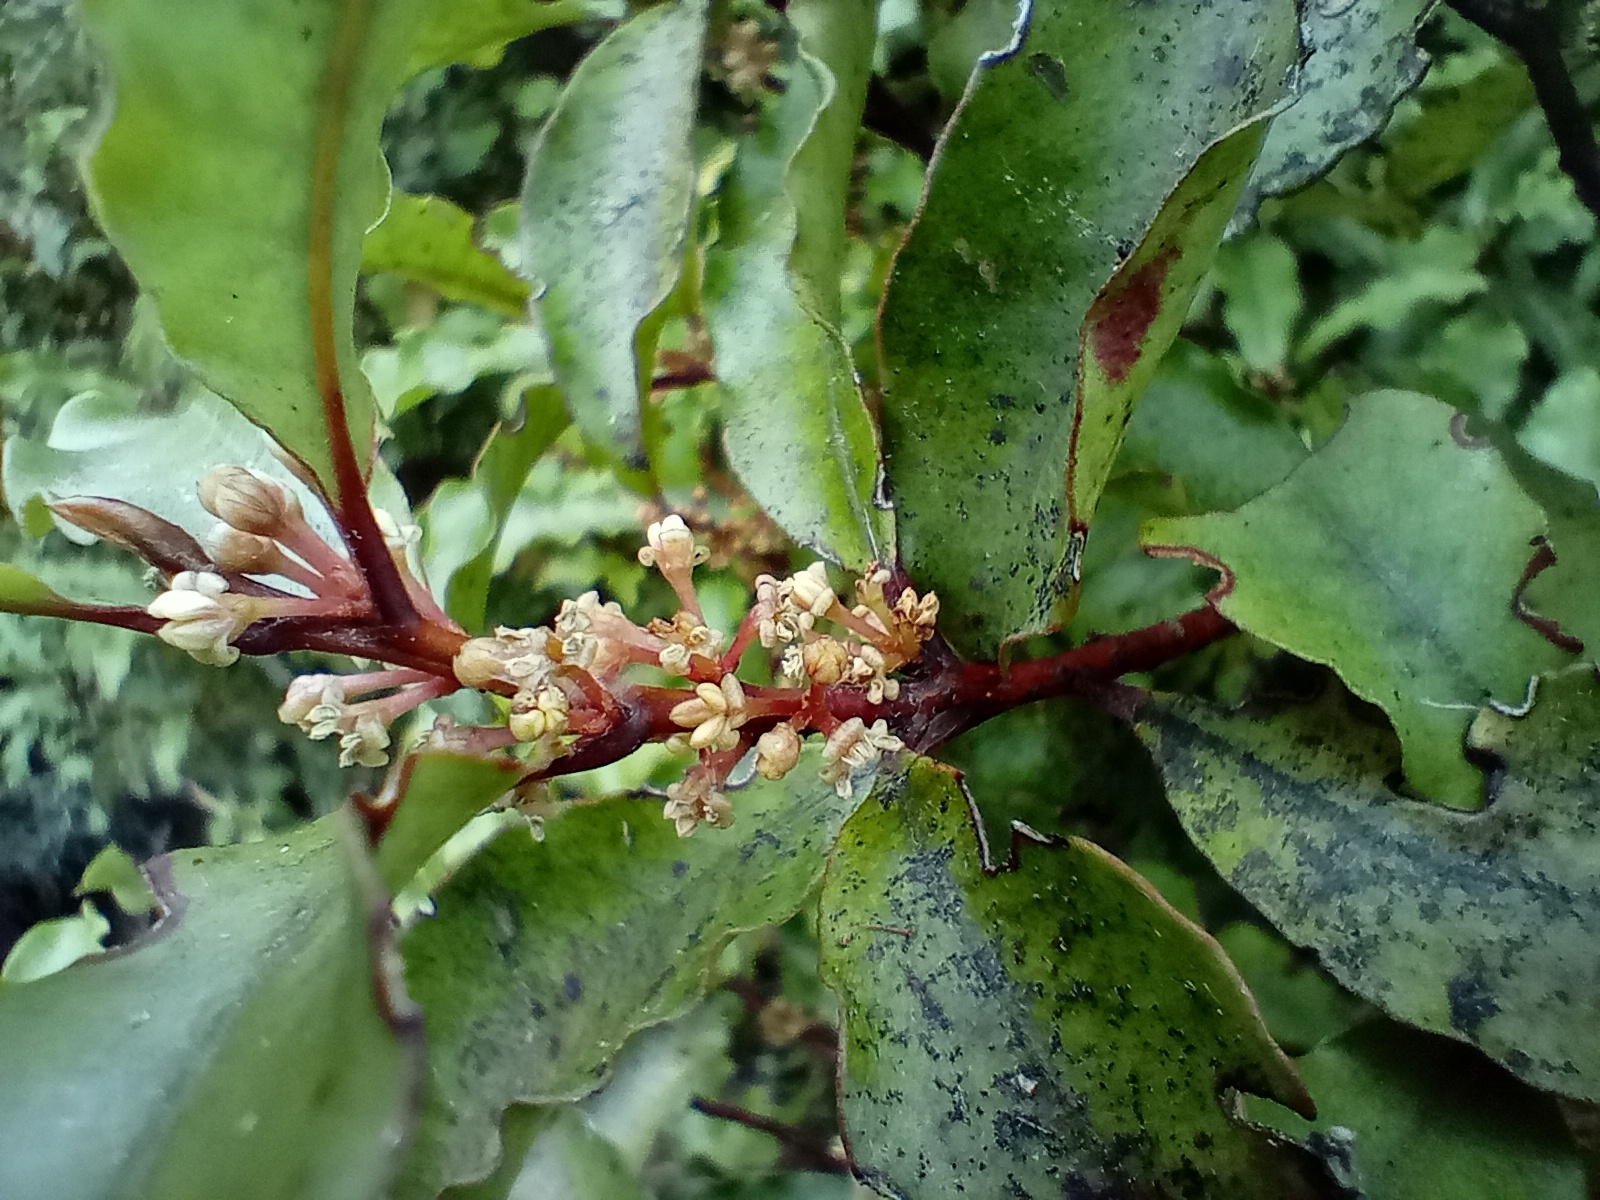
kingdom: Plantae
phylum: Tracheophyta
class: Magnoliopsida
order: Ericales
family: Primulaceae
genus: Myrsine
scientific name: Myrsine australis
